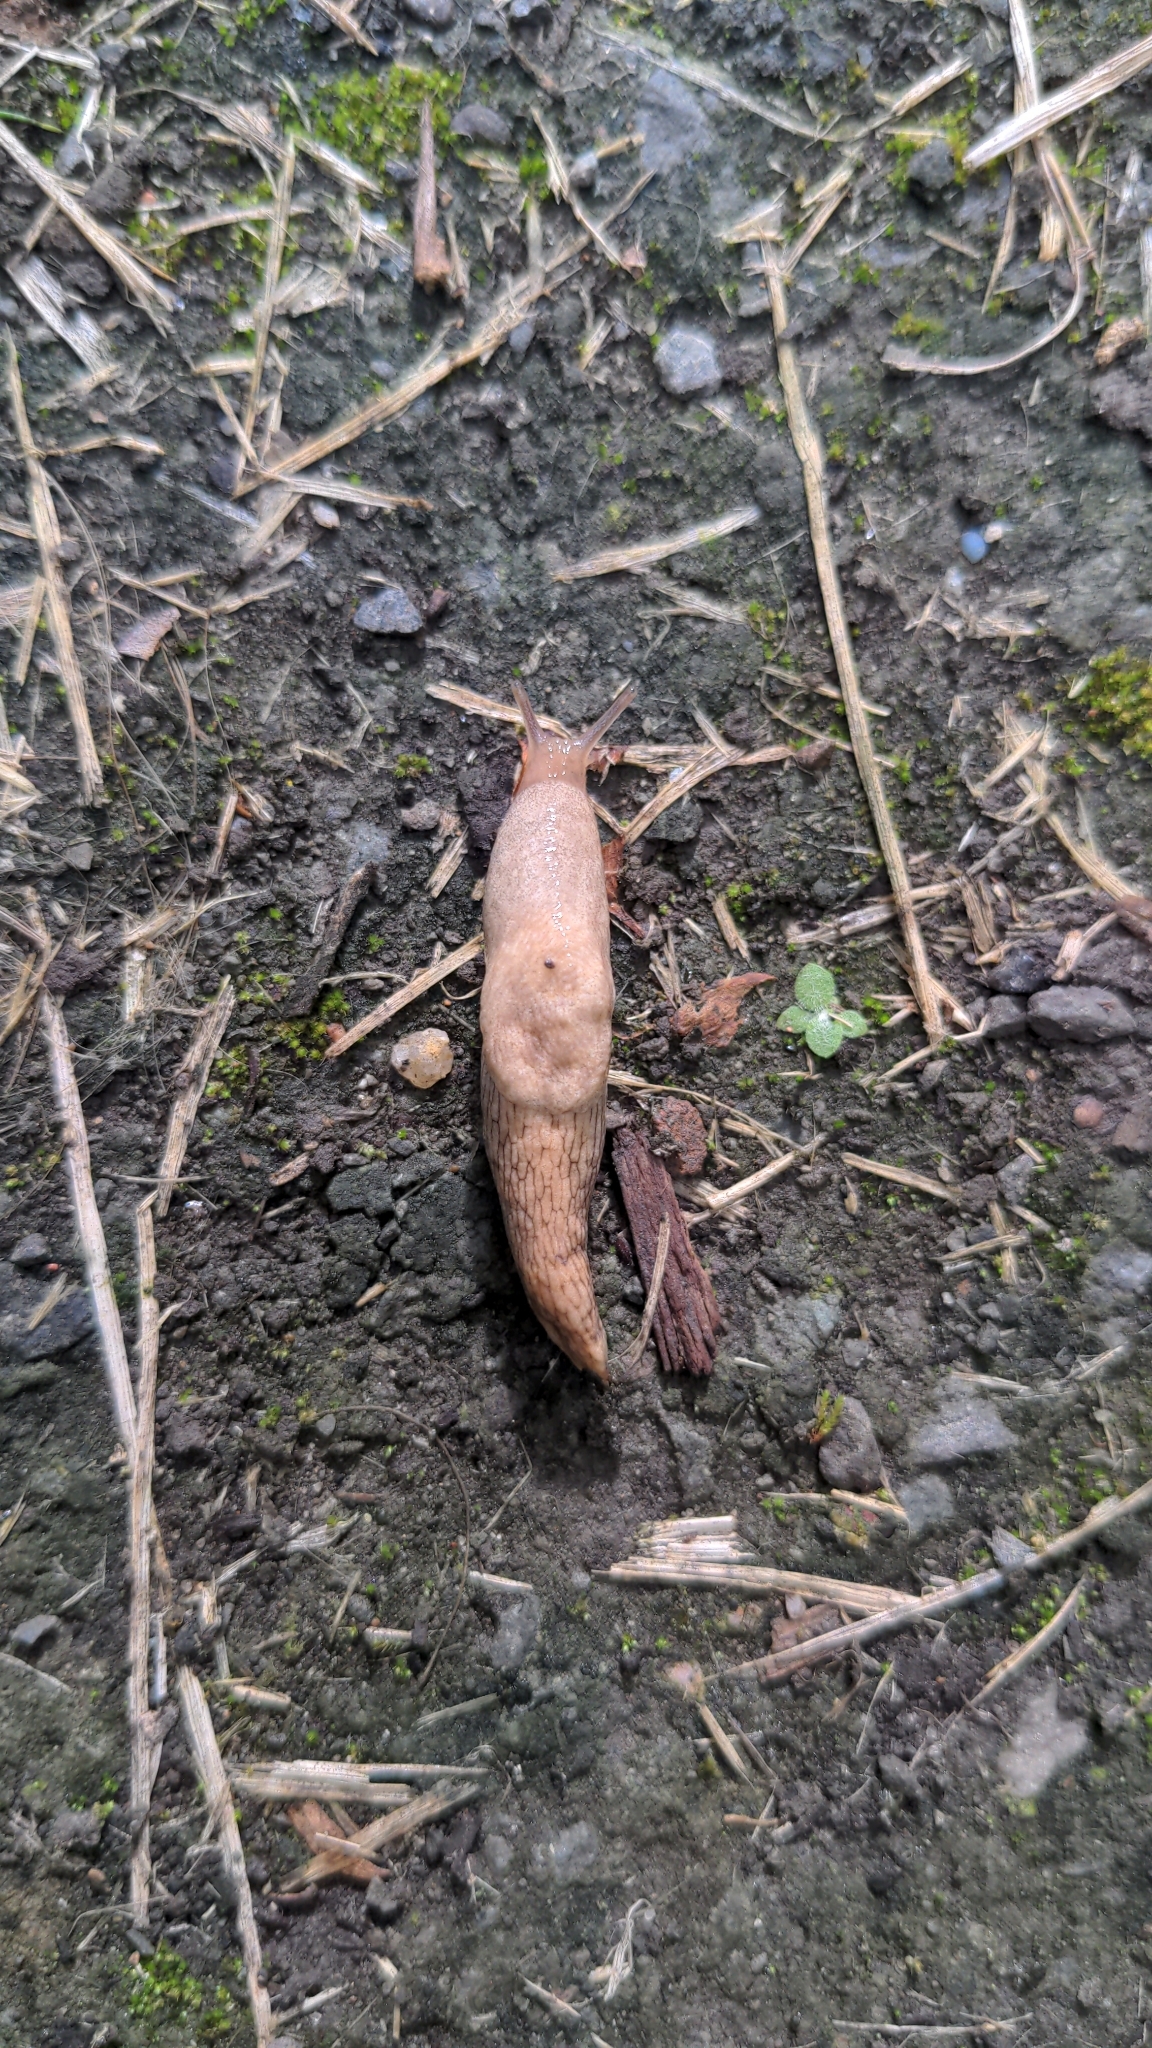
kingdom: Animalia
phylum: Mollusca
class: Gastropoda
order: Stylommatophora
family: Agriolimacidae
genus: Deroceras
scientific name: Deroceras reticulatum
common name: Gray field slug
